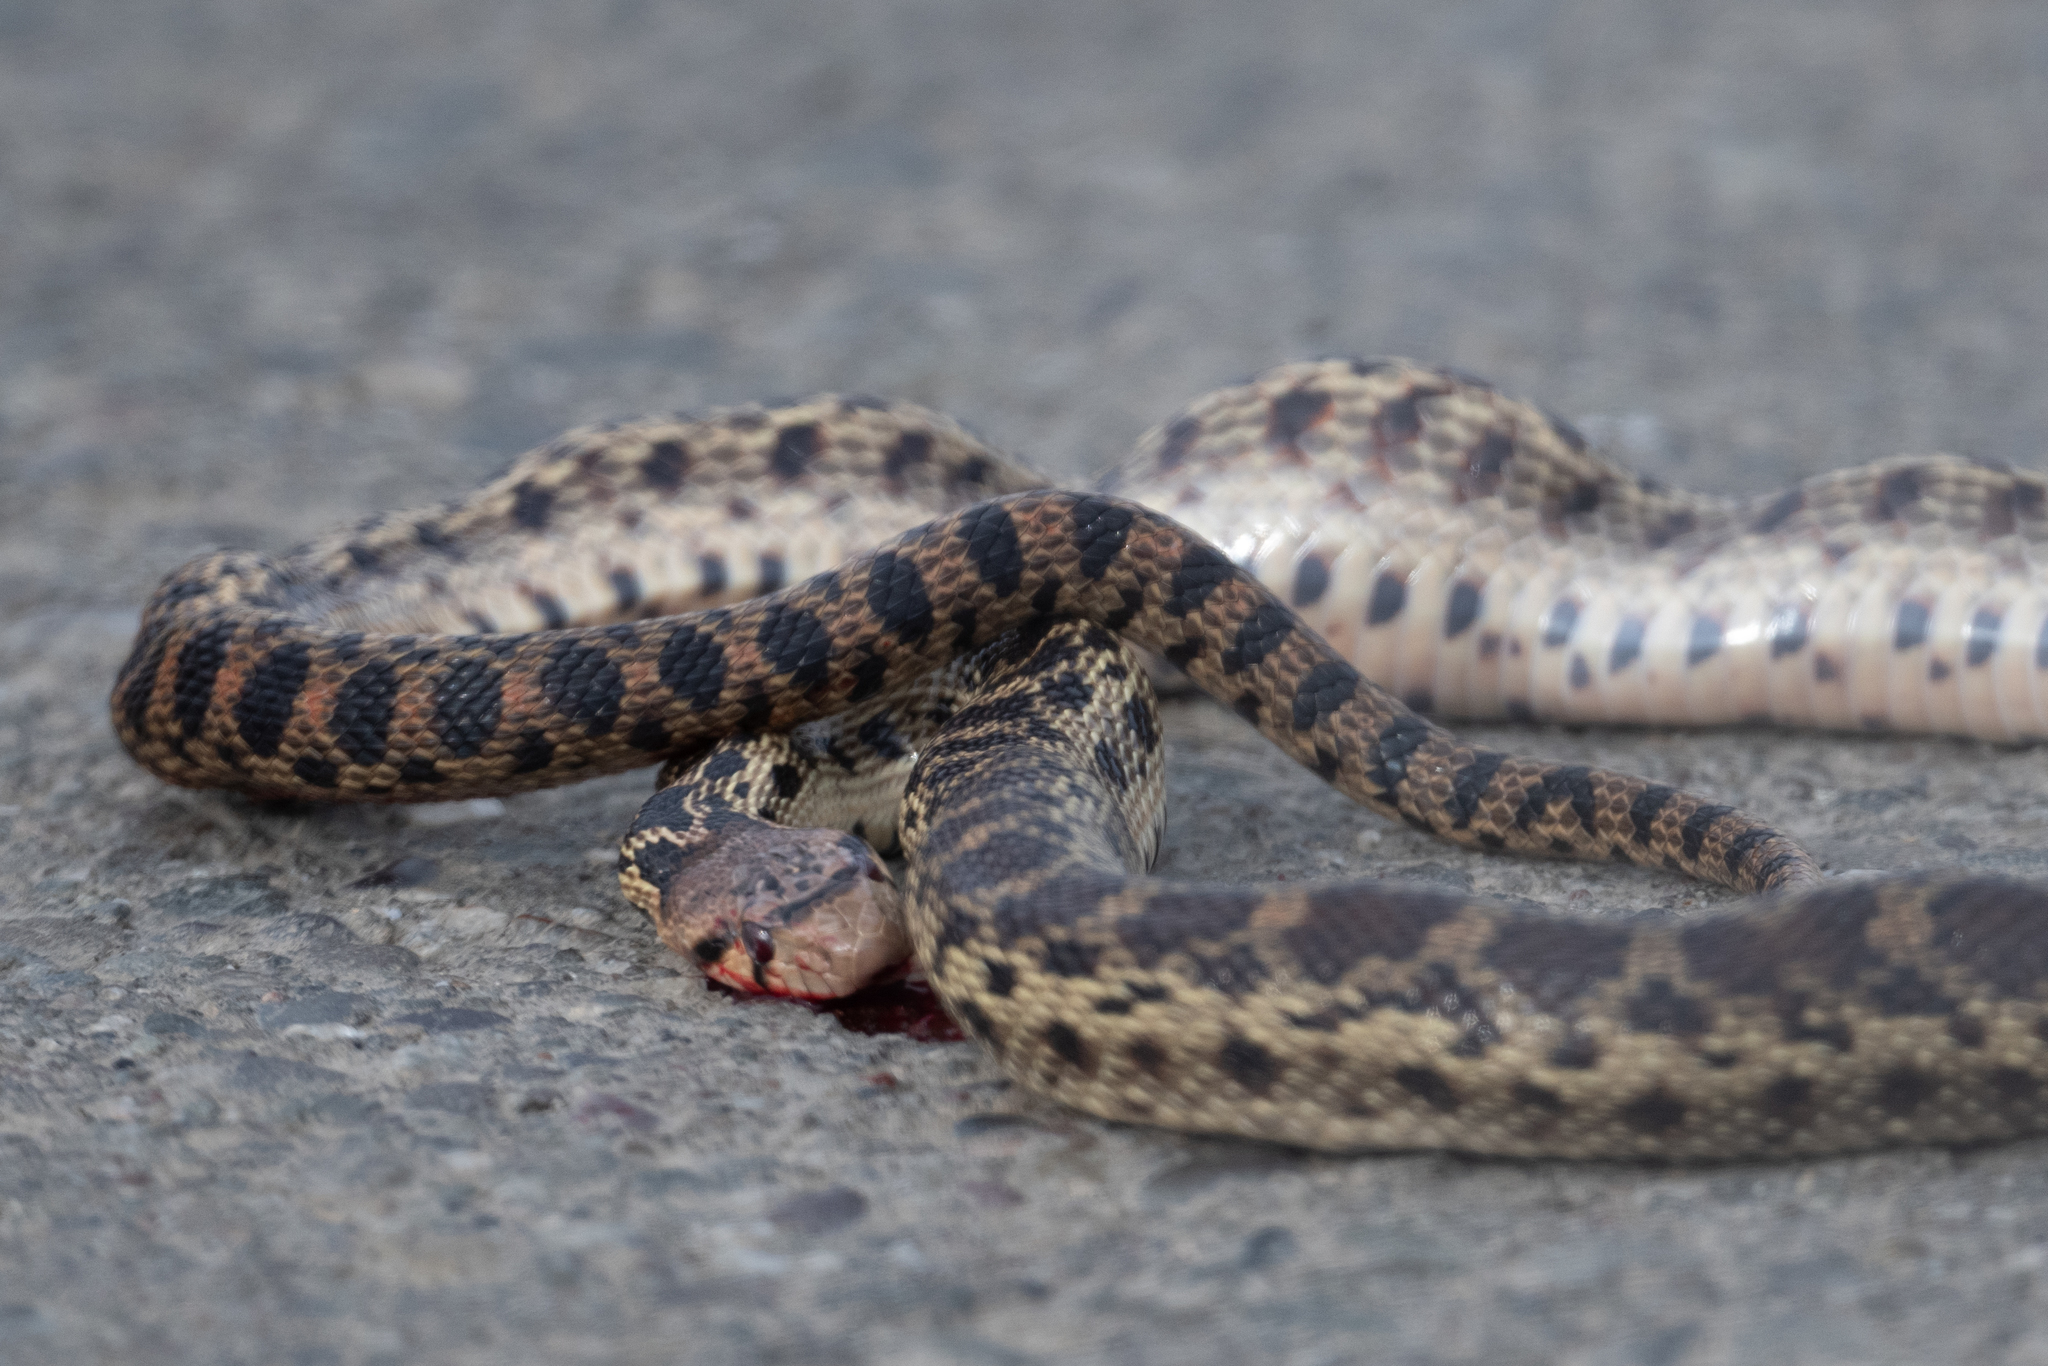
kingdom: Animalia
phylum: Chordata
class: Squamata
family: Colubridae
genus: Pituophis
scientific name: Pituophis catenifer
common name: Gopher snake
